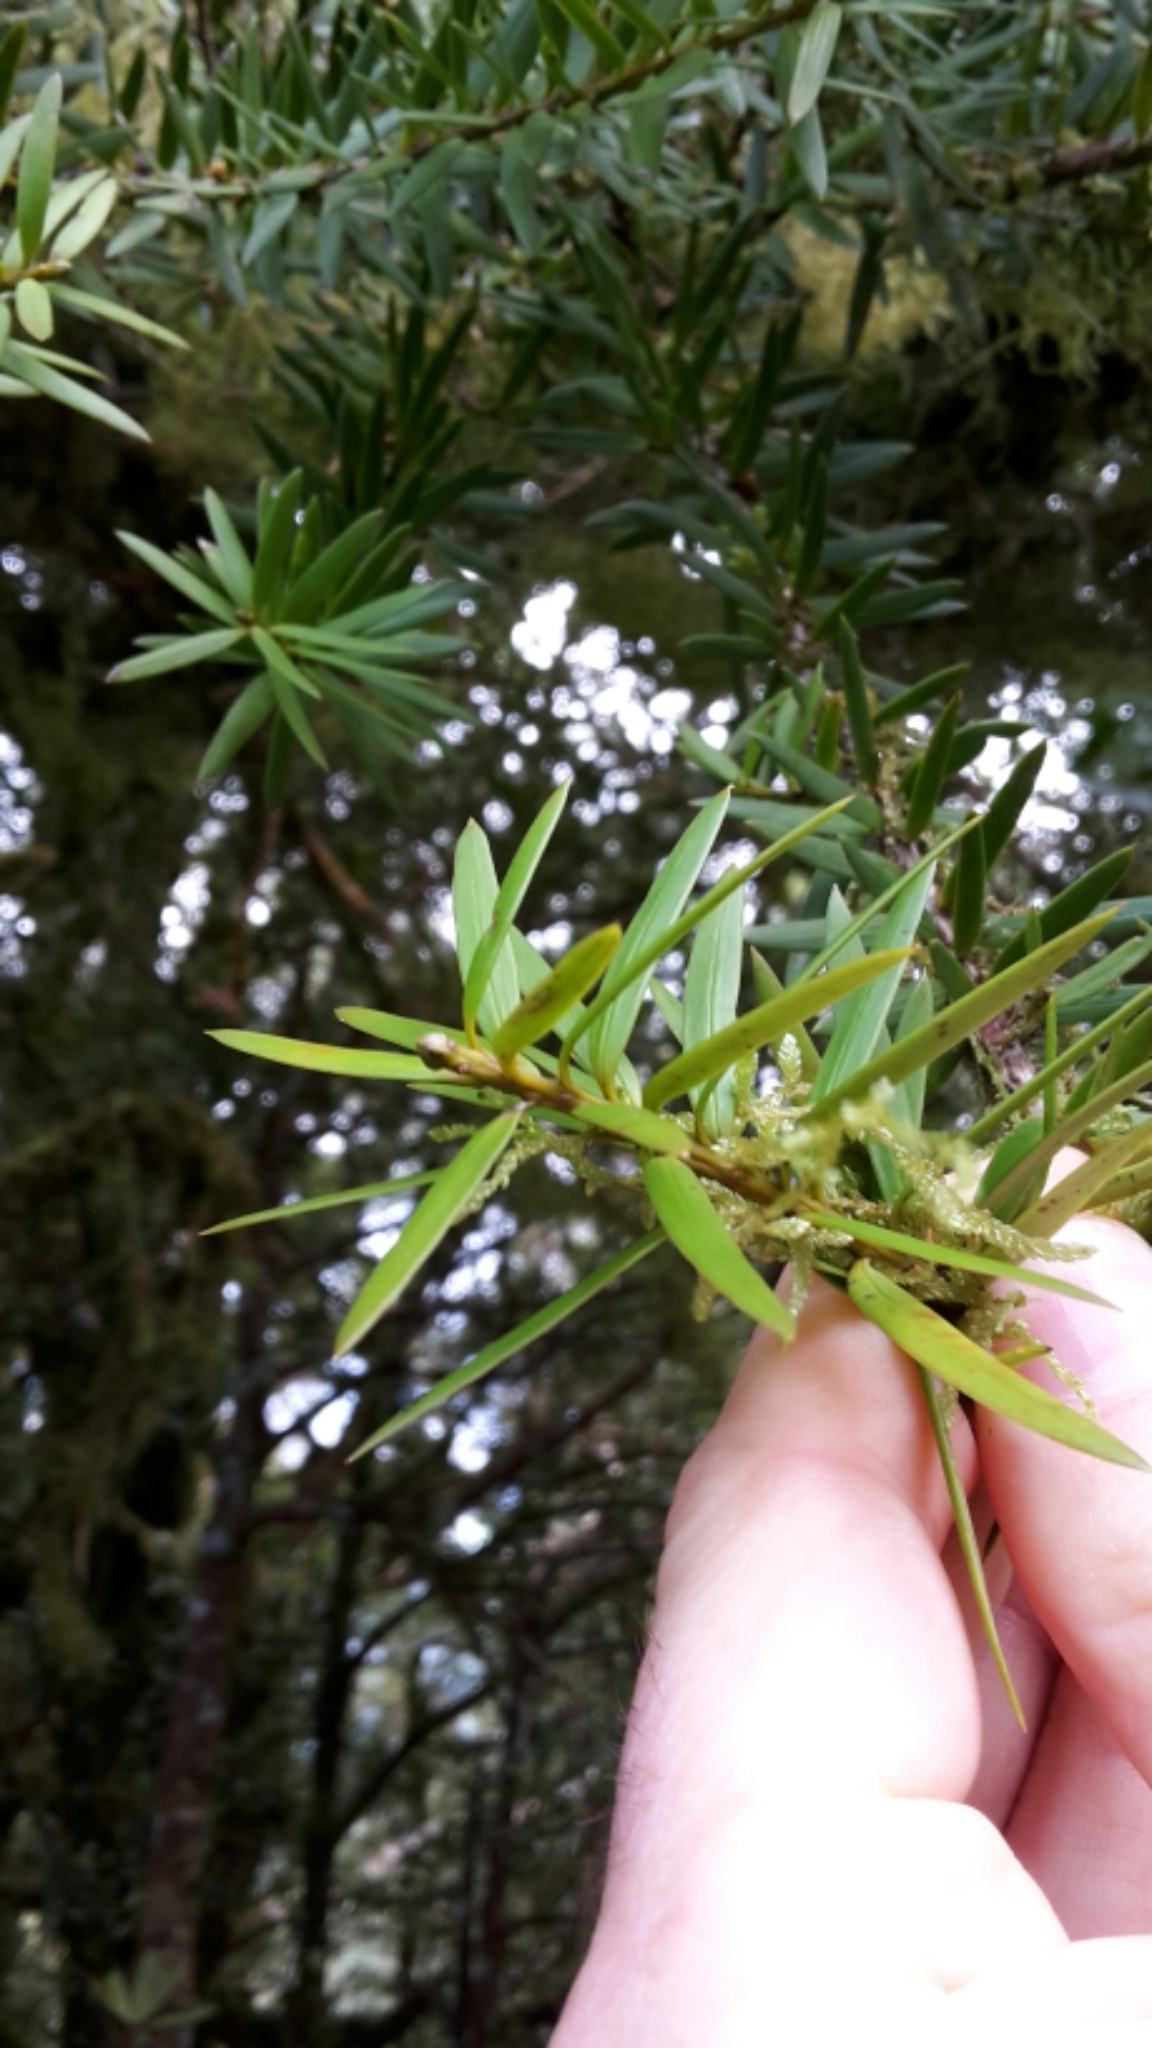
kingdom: Plantae
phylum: Tracheophyta
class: Pinopsida
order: Pinales
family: Podocarpaceae
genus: Podocarpus
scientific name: Podocarpus laetus
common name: Hall's totara
